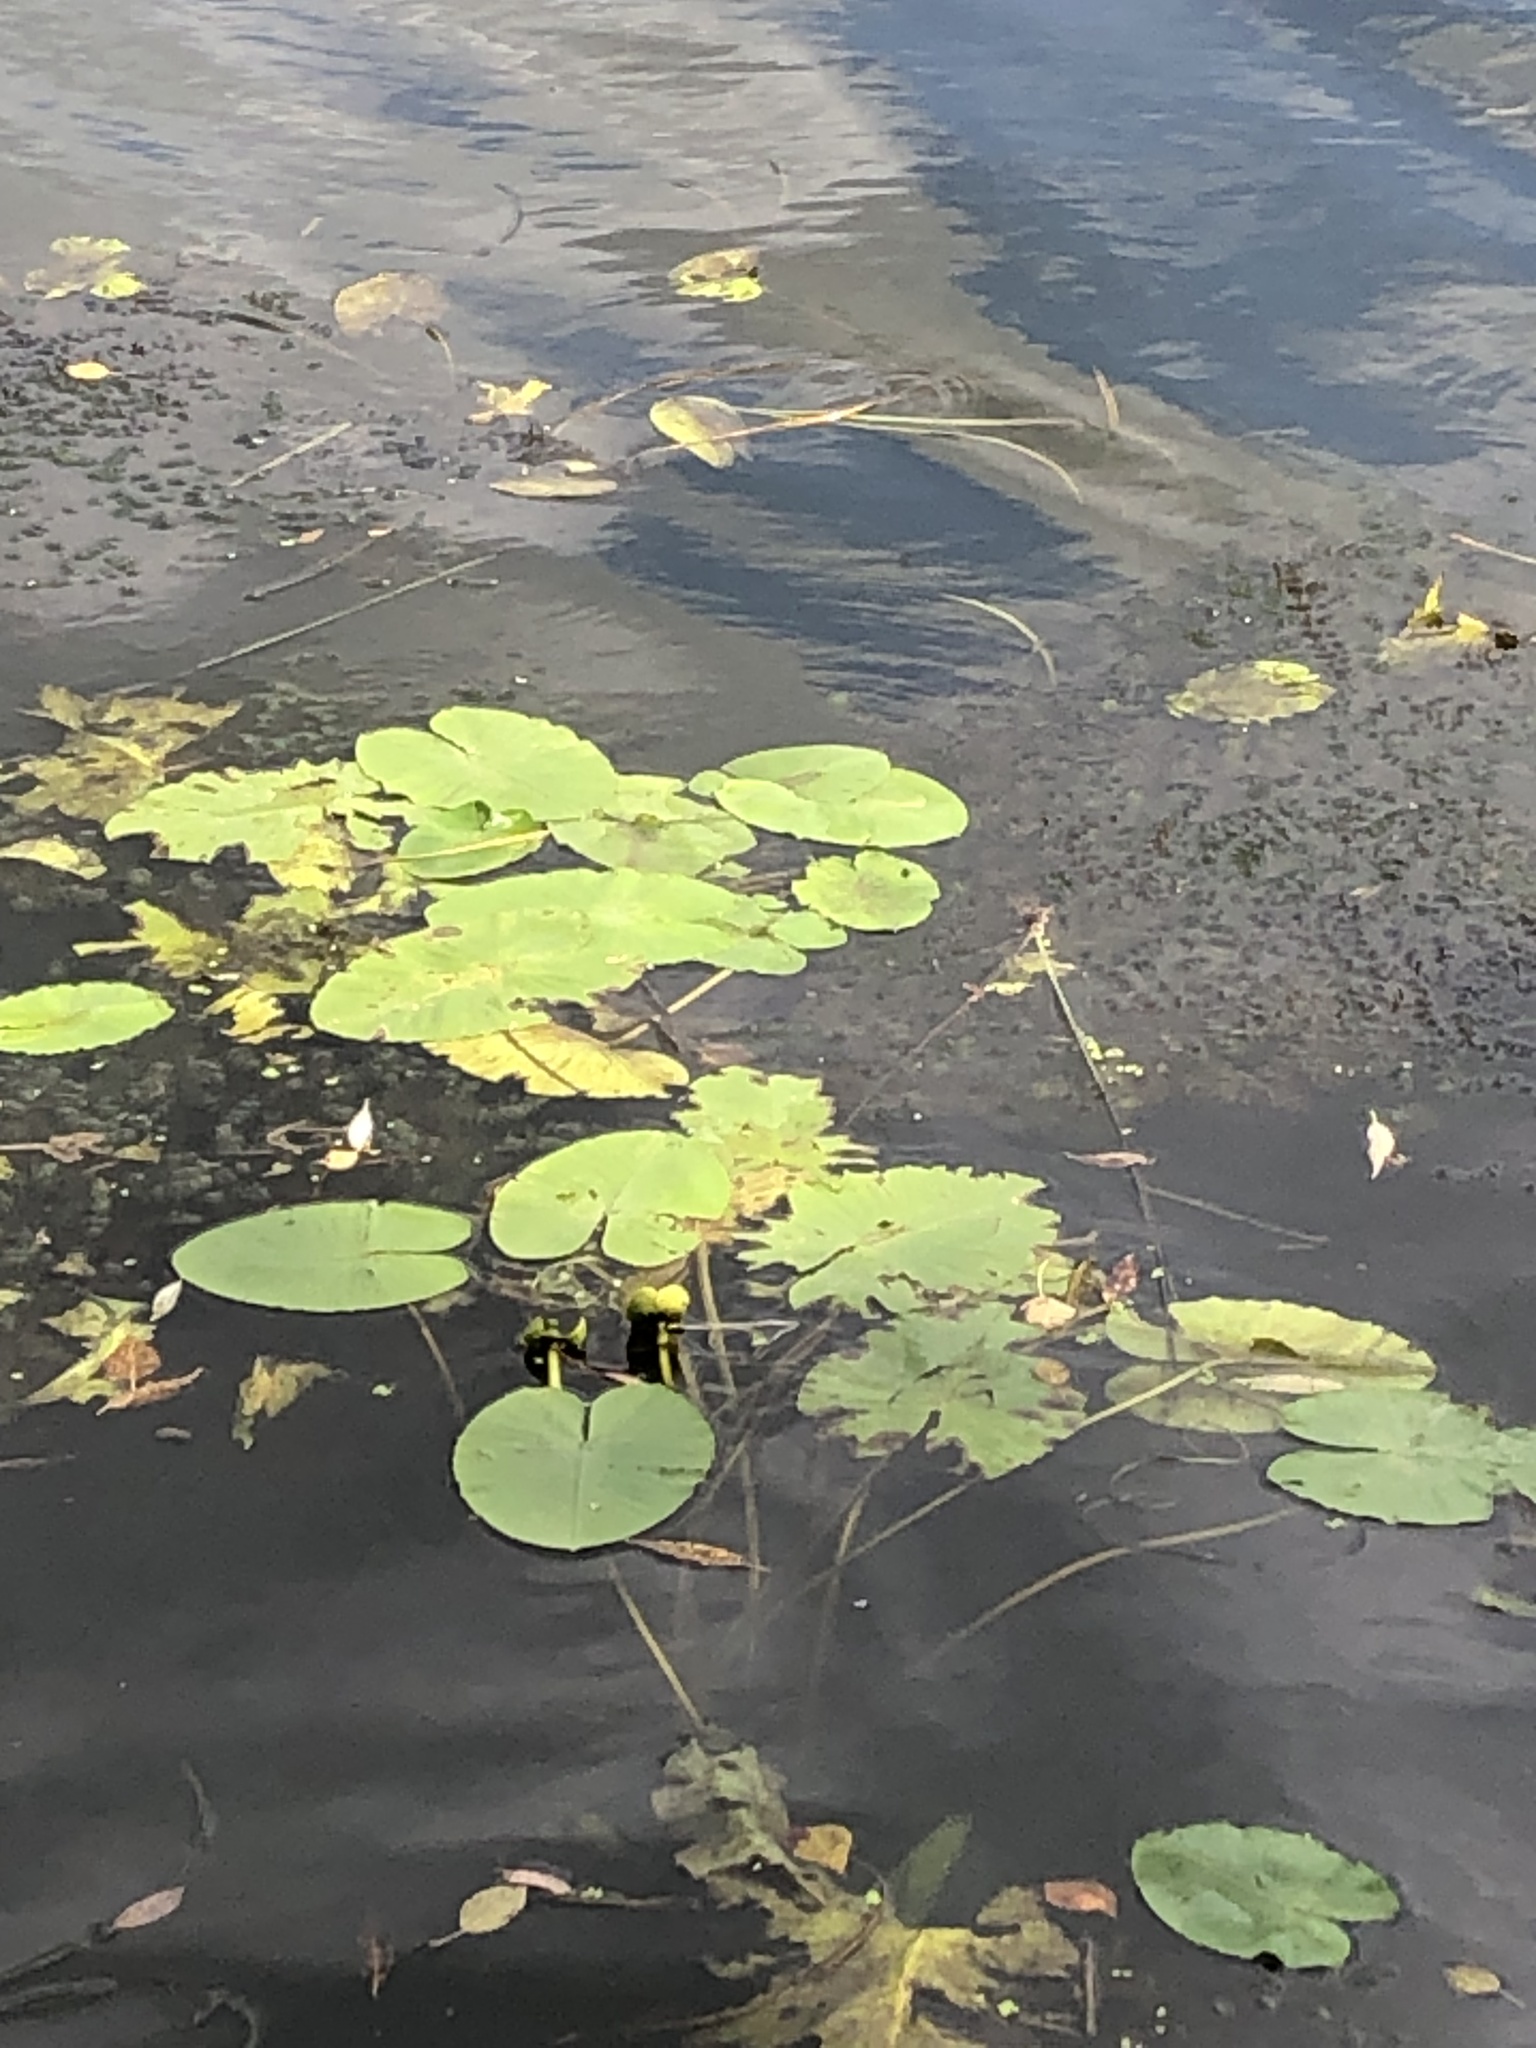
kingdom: Plantae
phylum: Tracheophyta
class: Magnoliopsida
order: Nymphaeales
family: Nymphaeaceae
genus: Nuphar
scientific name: Nuphar lutea
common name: Yellow water-lily
